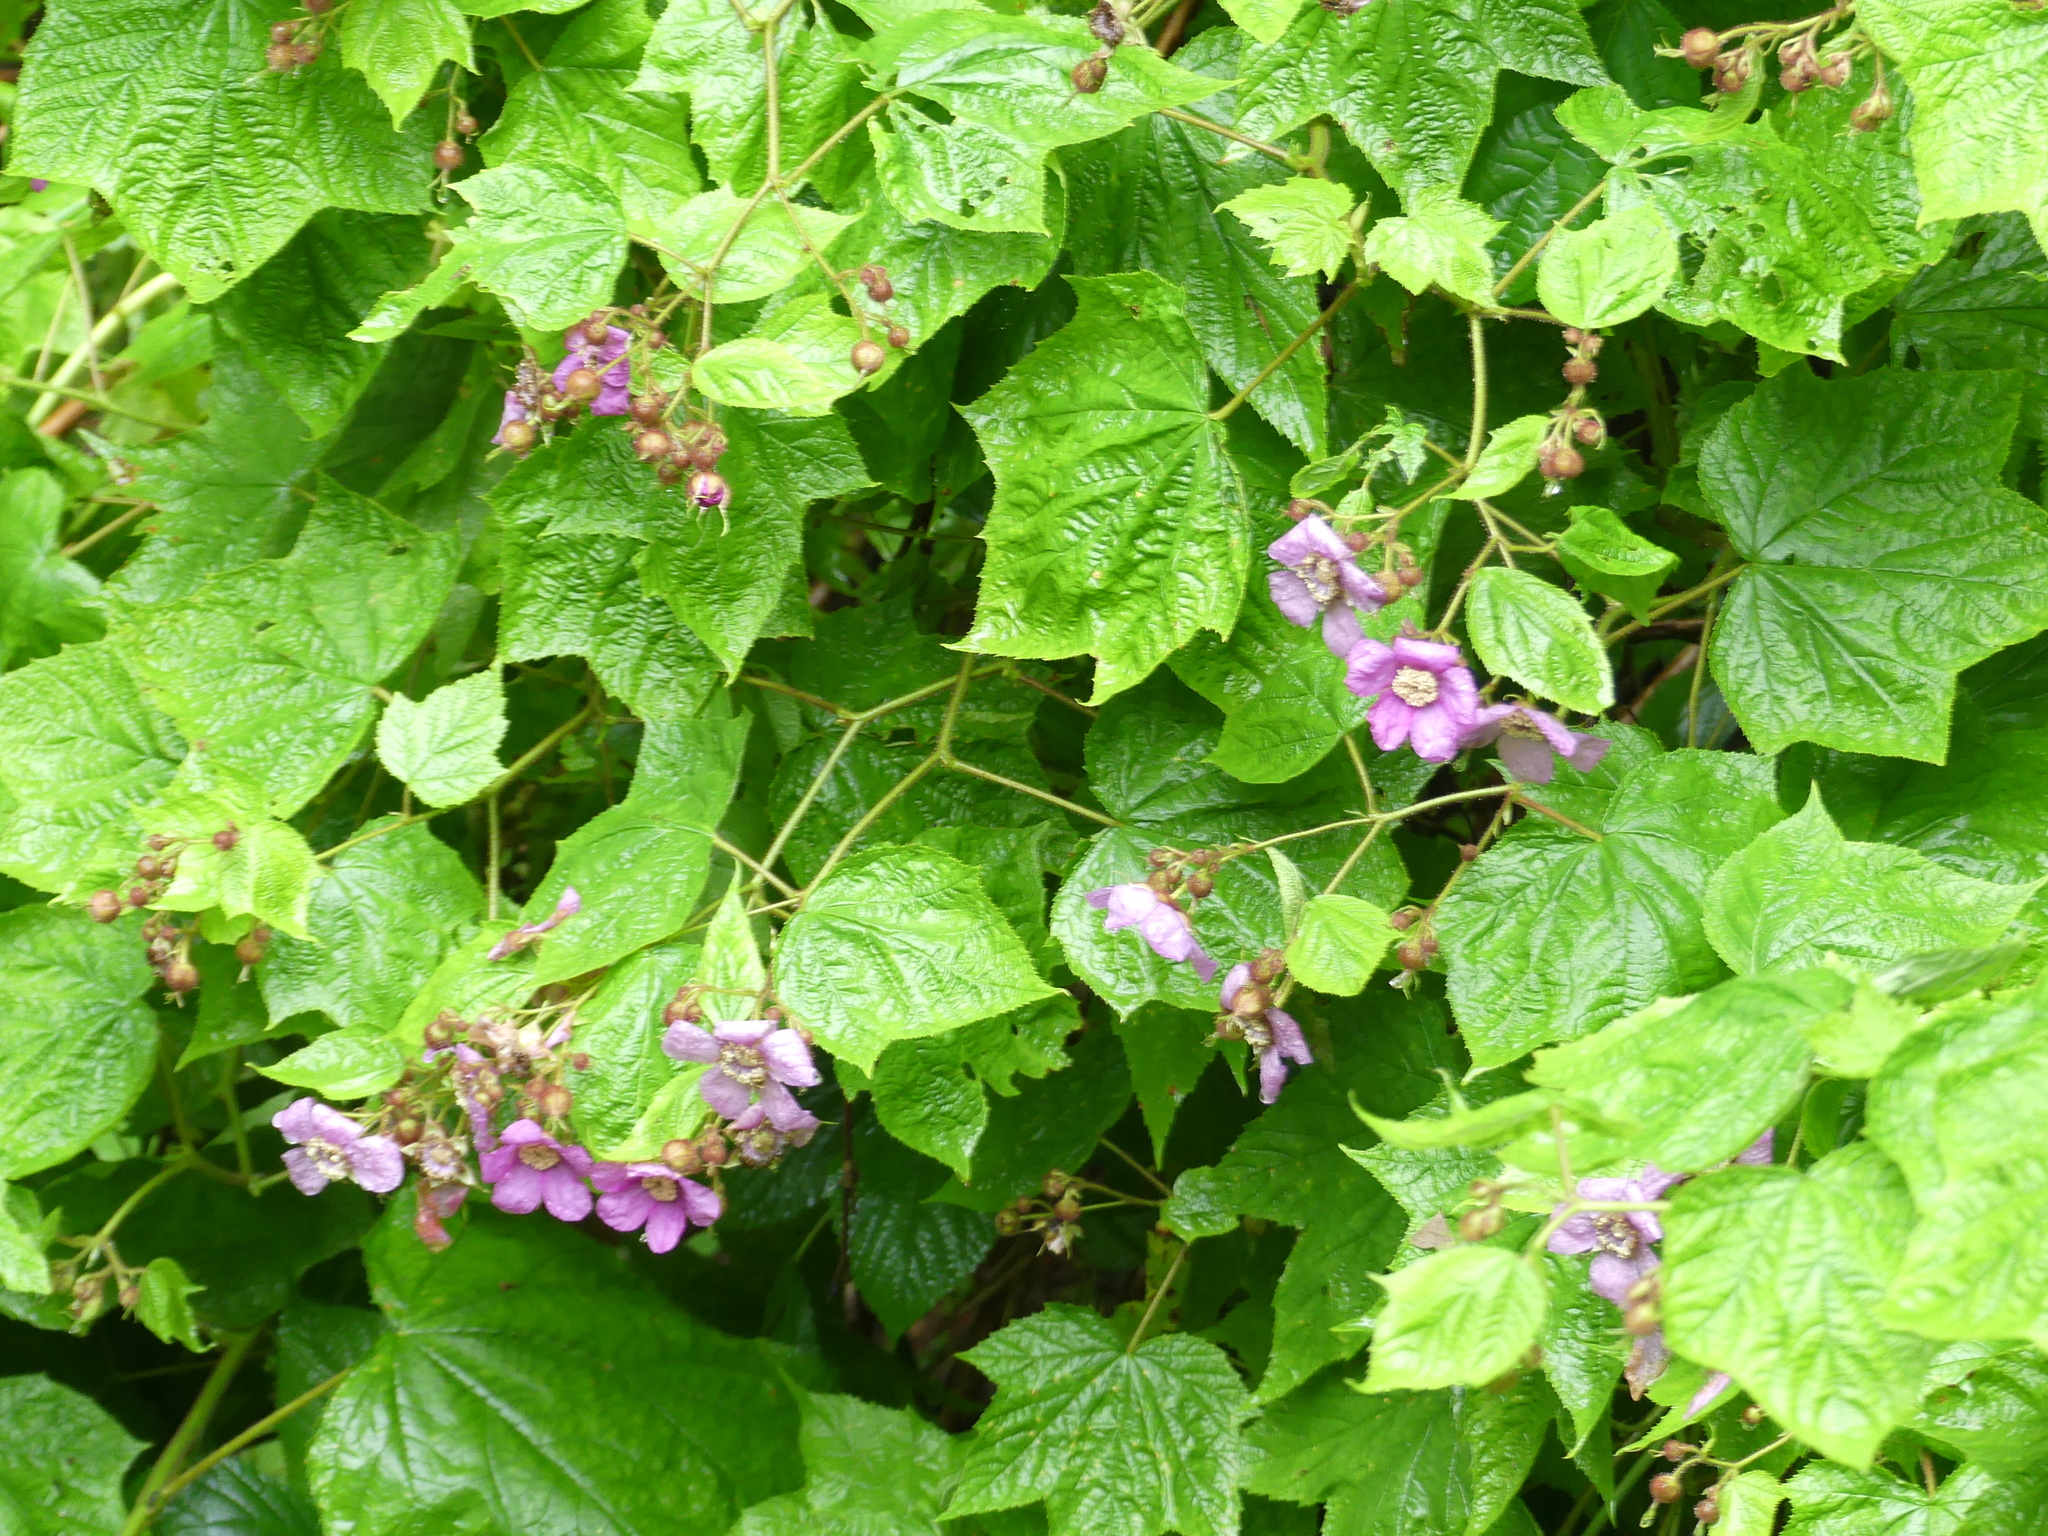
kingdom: Plantae
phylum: Tracheophyta
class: Magnoliopsida
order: Rosales
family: Rosaceae
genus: Rubus
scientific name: Rubus odoratus
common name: Purple-flowered raspberry
